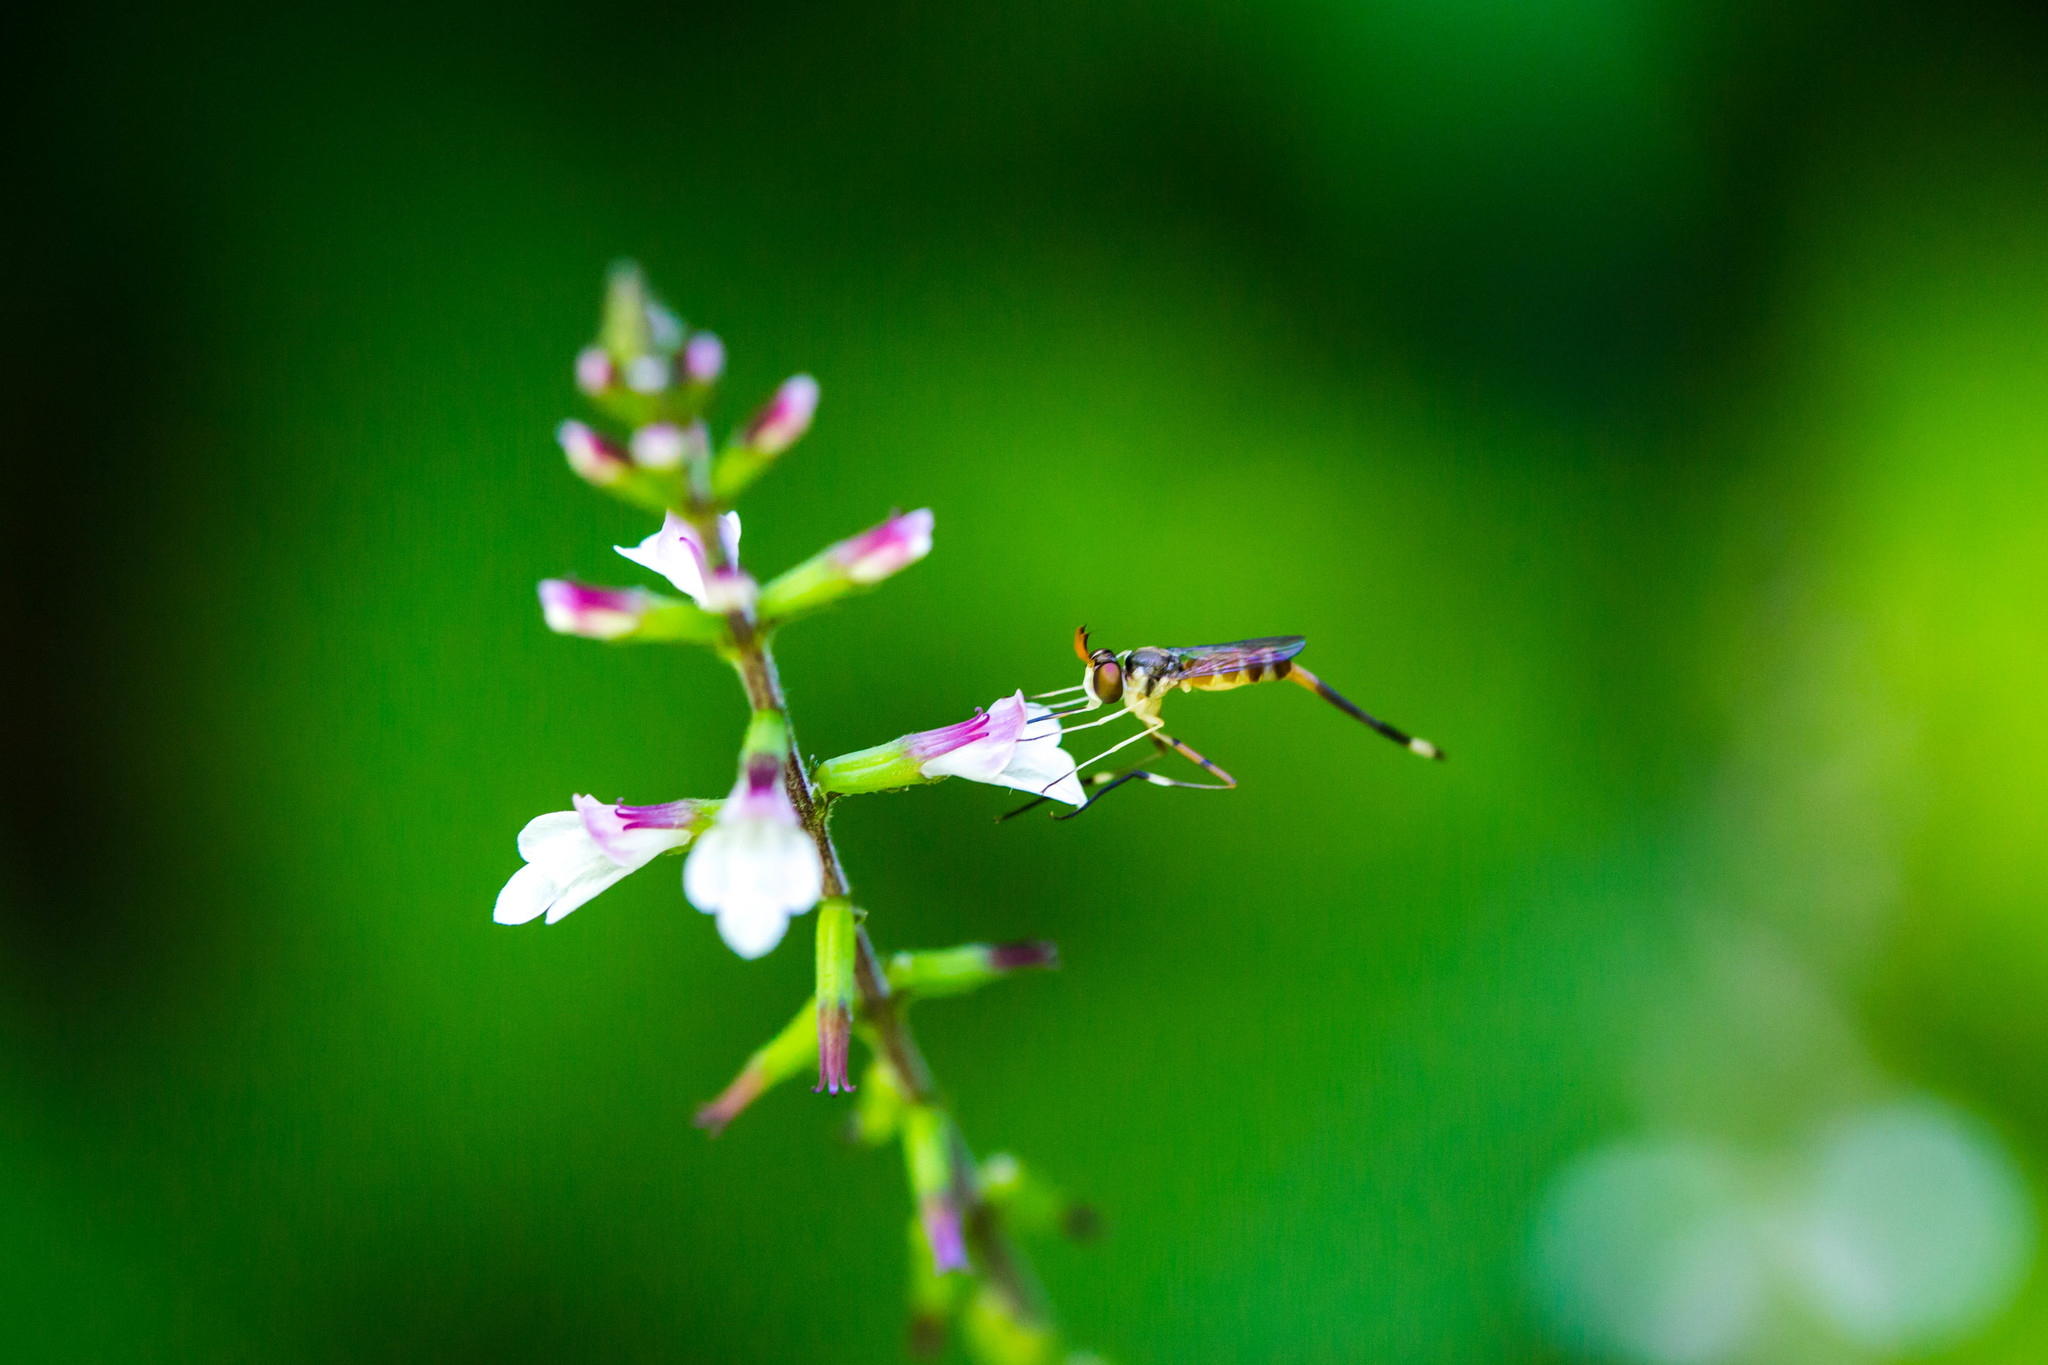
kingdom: Animalia
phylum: Arthropoda
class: Insecta
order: Diptera
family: Conopidae
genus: Stylogaster
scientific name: Stylogaster neglecta
